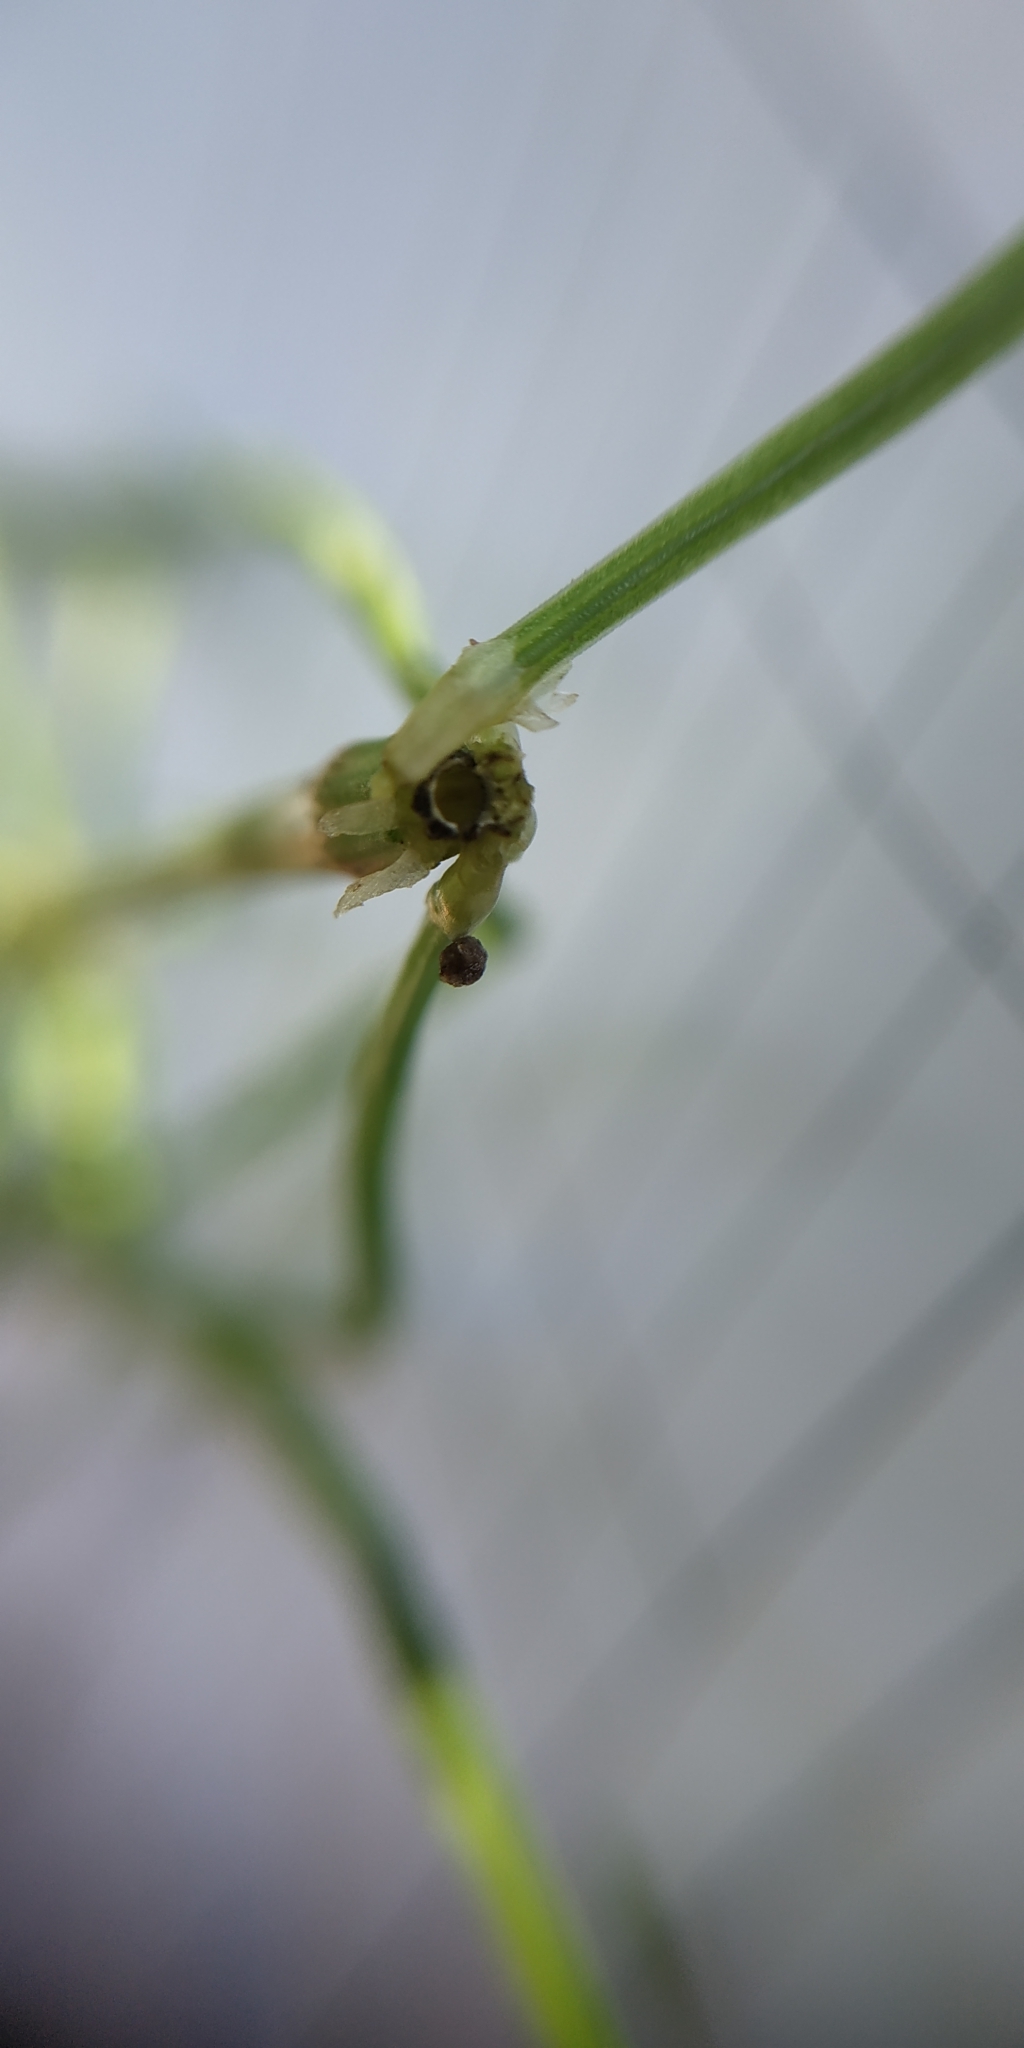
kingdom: Plantae
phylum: Tracheophyta
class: Polypodiopsida
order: Equisetales
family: Equisetaceae
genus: Equisetum
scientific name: Equisetum arvense
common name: Field horsetail
